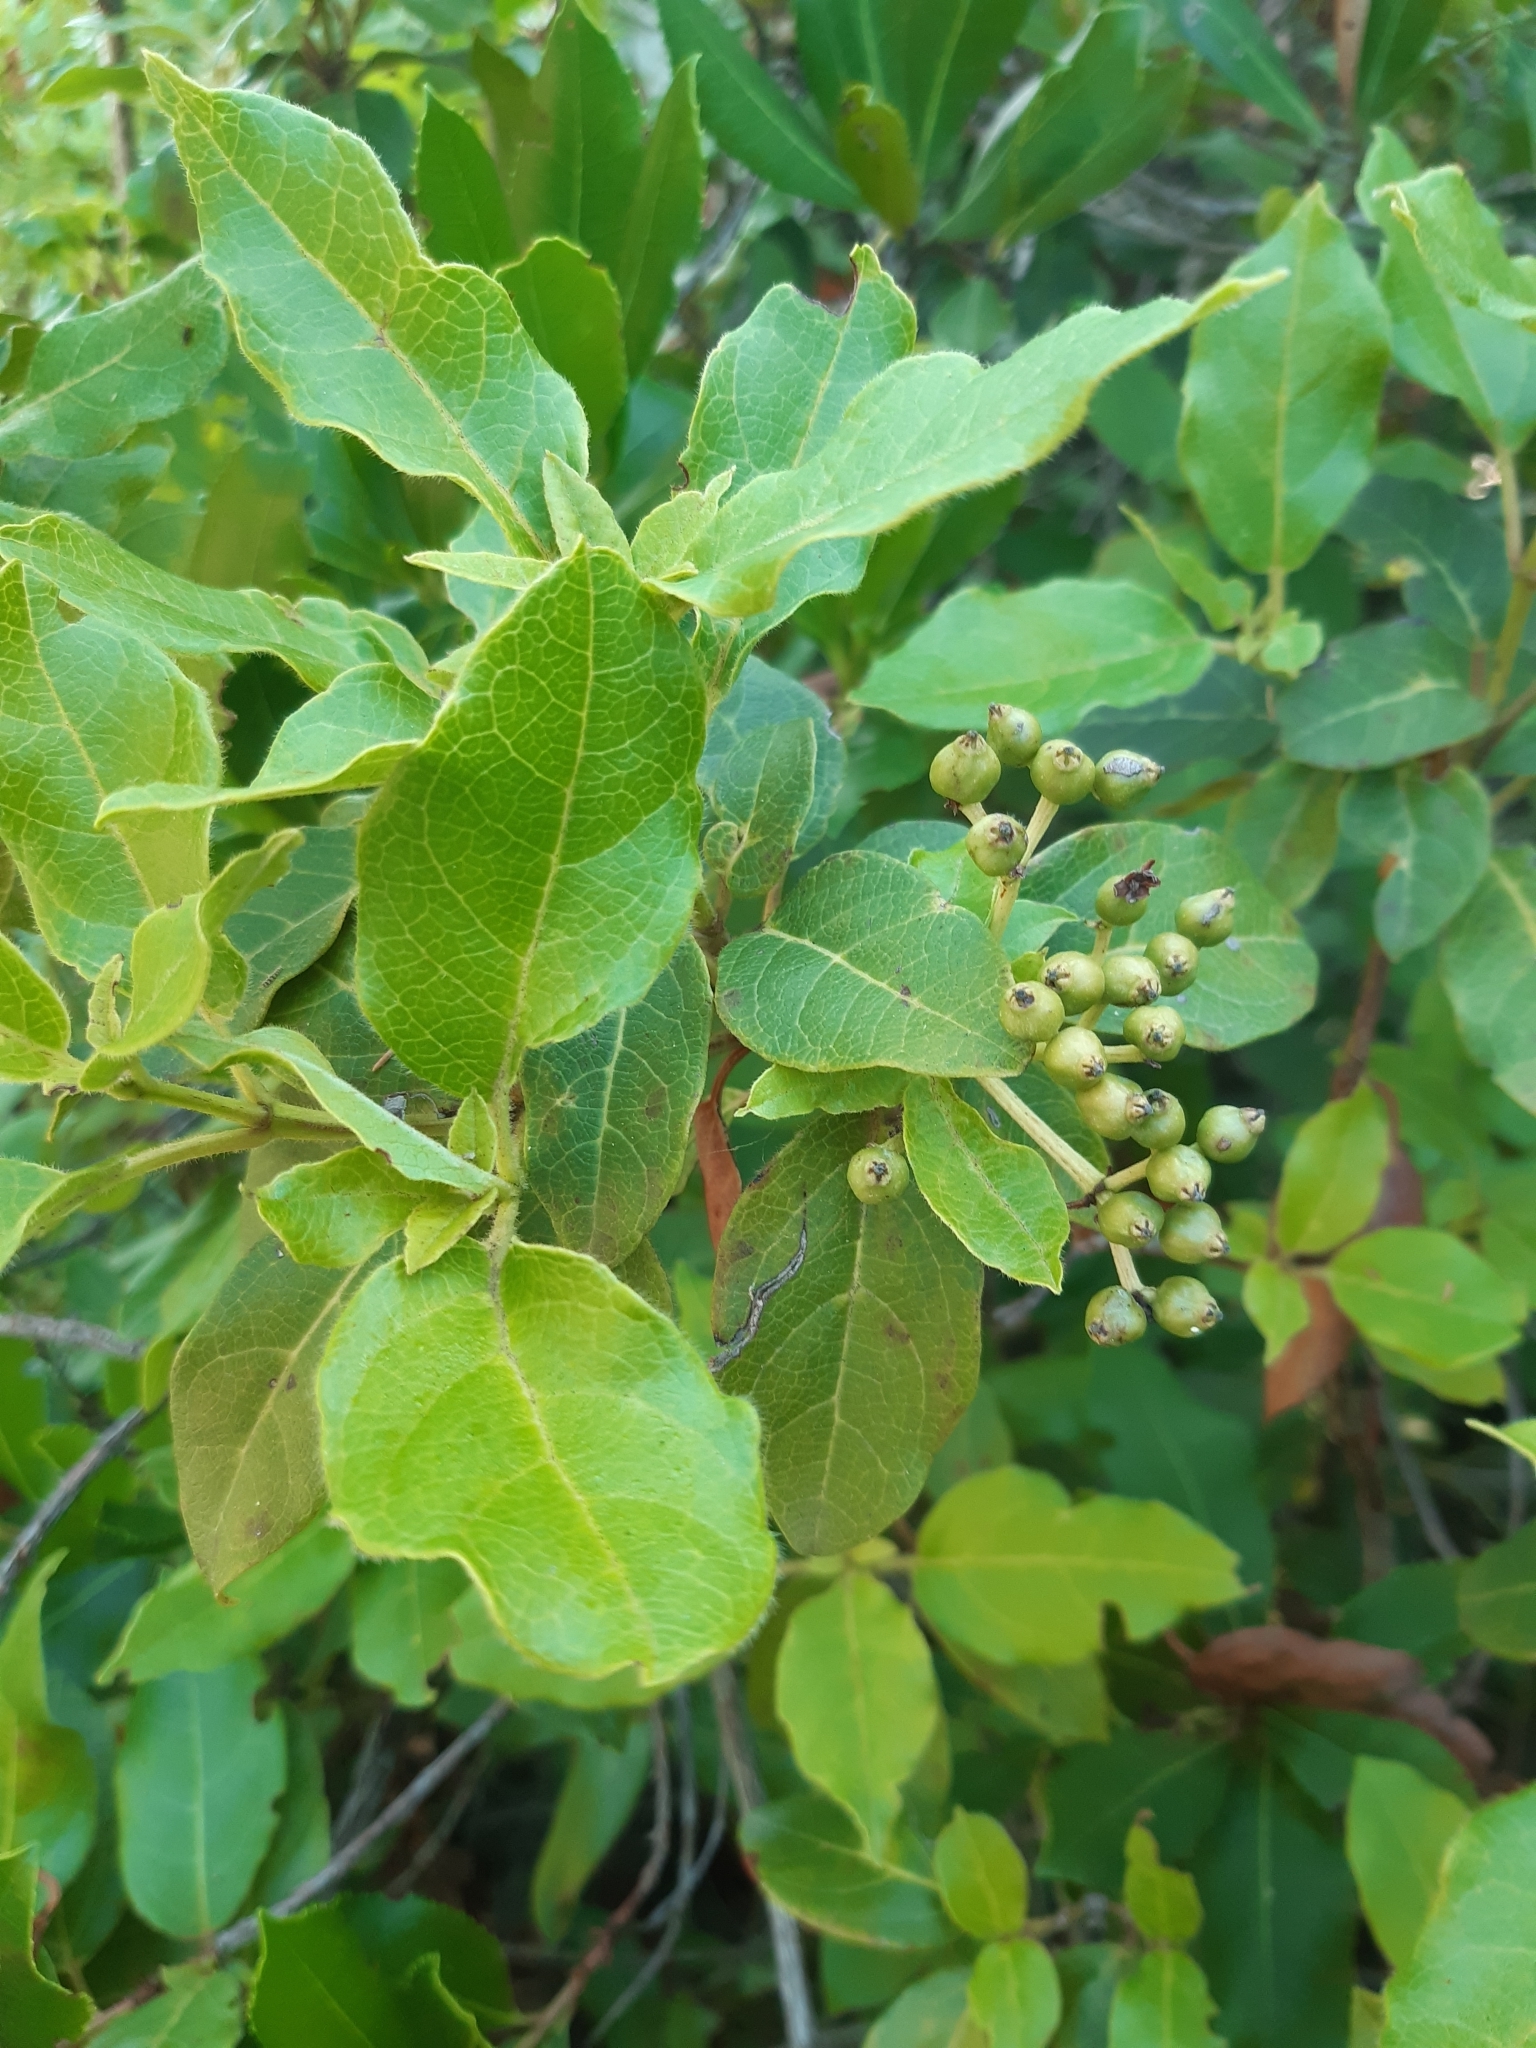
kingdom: Plantae
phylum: Tracheophyta
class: Magnoliopsida
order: Dipsacales
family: Viburnaceae
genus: Viburnum
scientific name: Viburnum tinus
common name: Laurustinus
